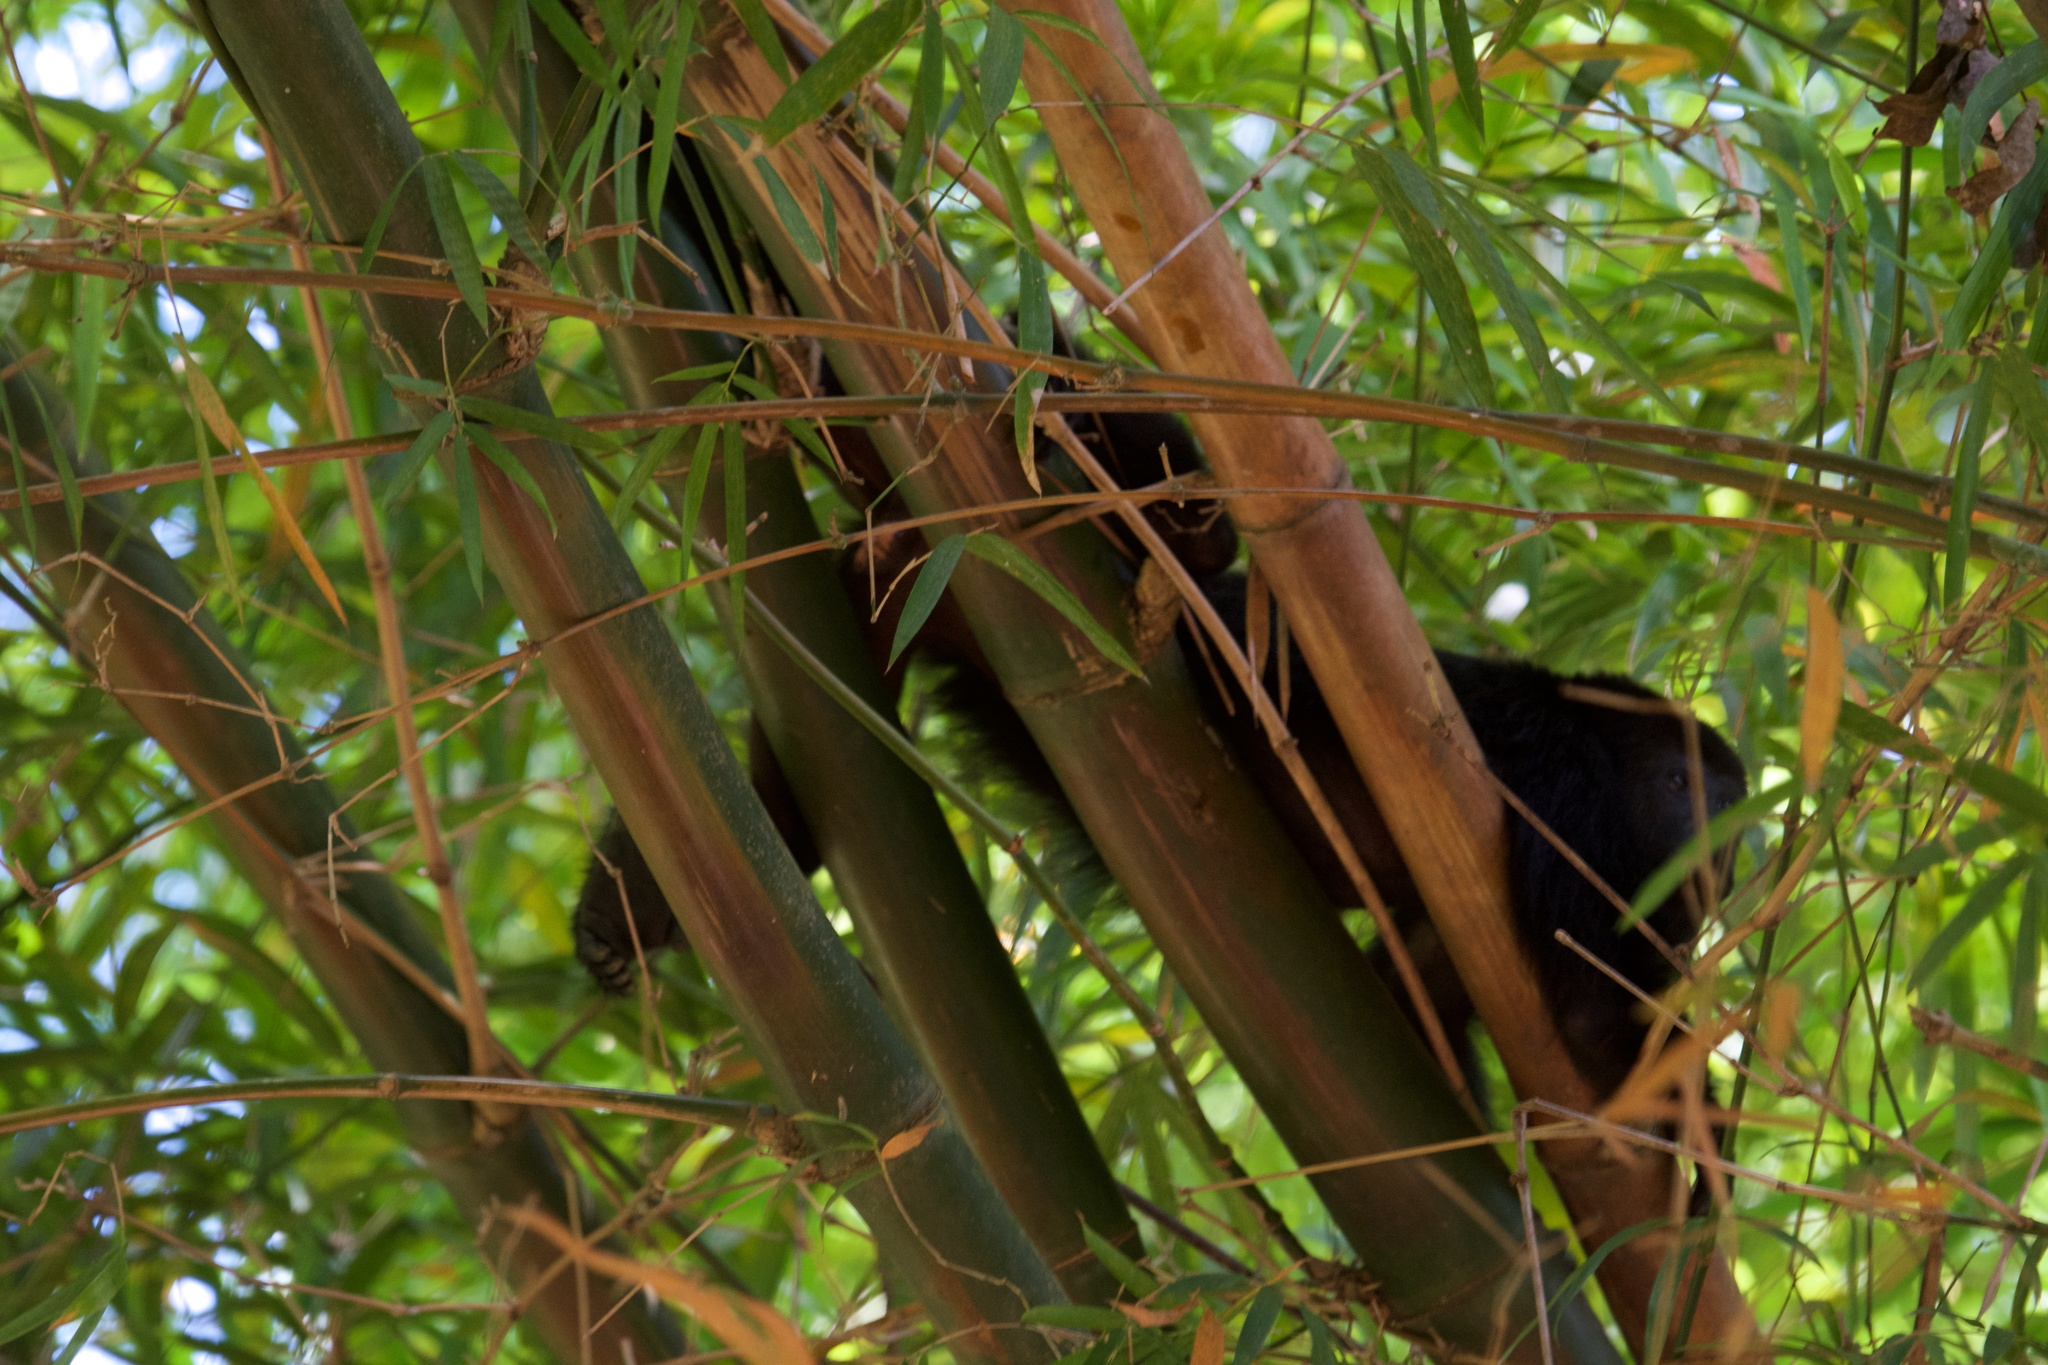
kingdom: Animalia
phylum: Chordata
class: Mammalia
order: Primates
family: Atelidae
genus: Alouatta
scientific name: Alouatta pigra
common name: Guatemalan black howler
